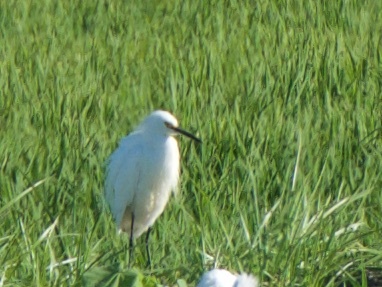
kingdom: Animalia
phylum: Chordata
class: Aves
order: Pelecaniformes
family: Ardeidae
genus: Egretta
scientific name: Egretta thula
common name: Snowy egret
